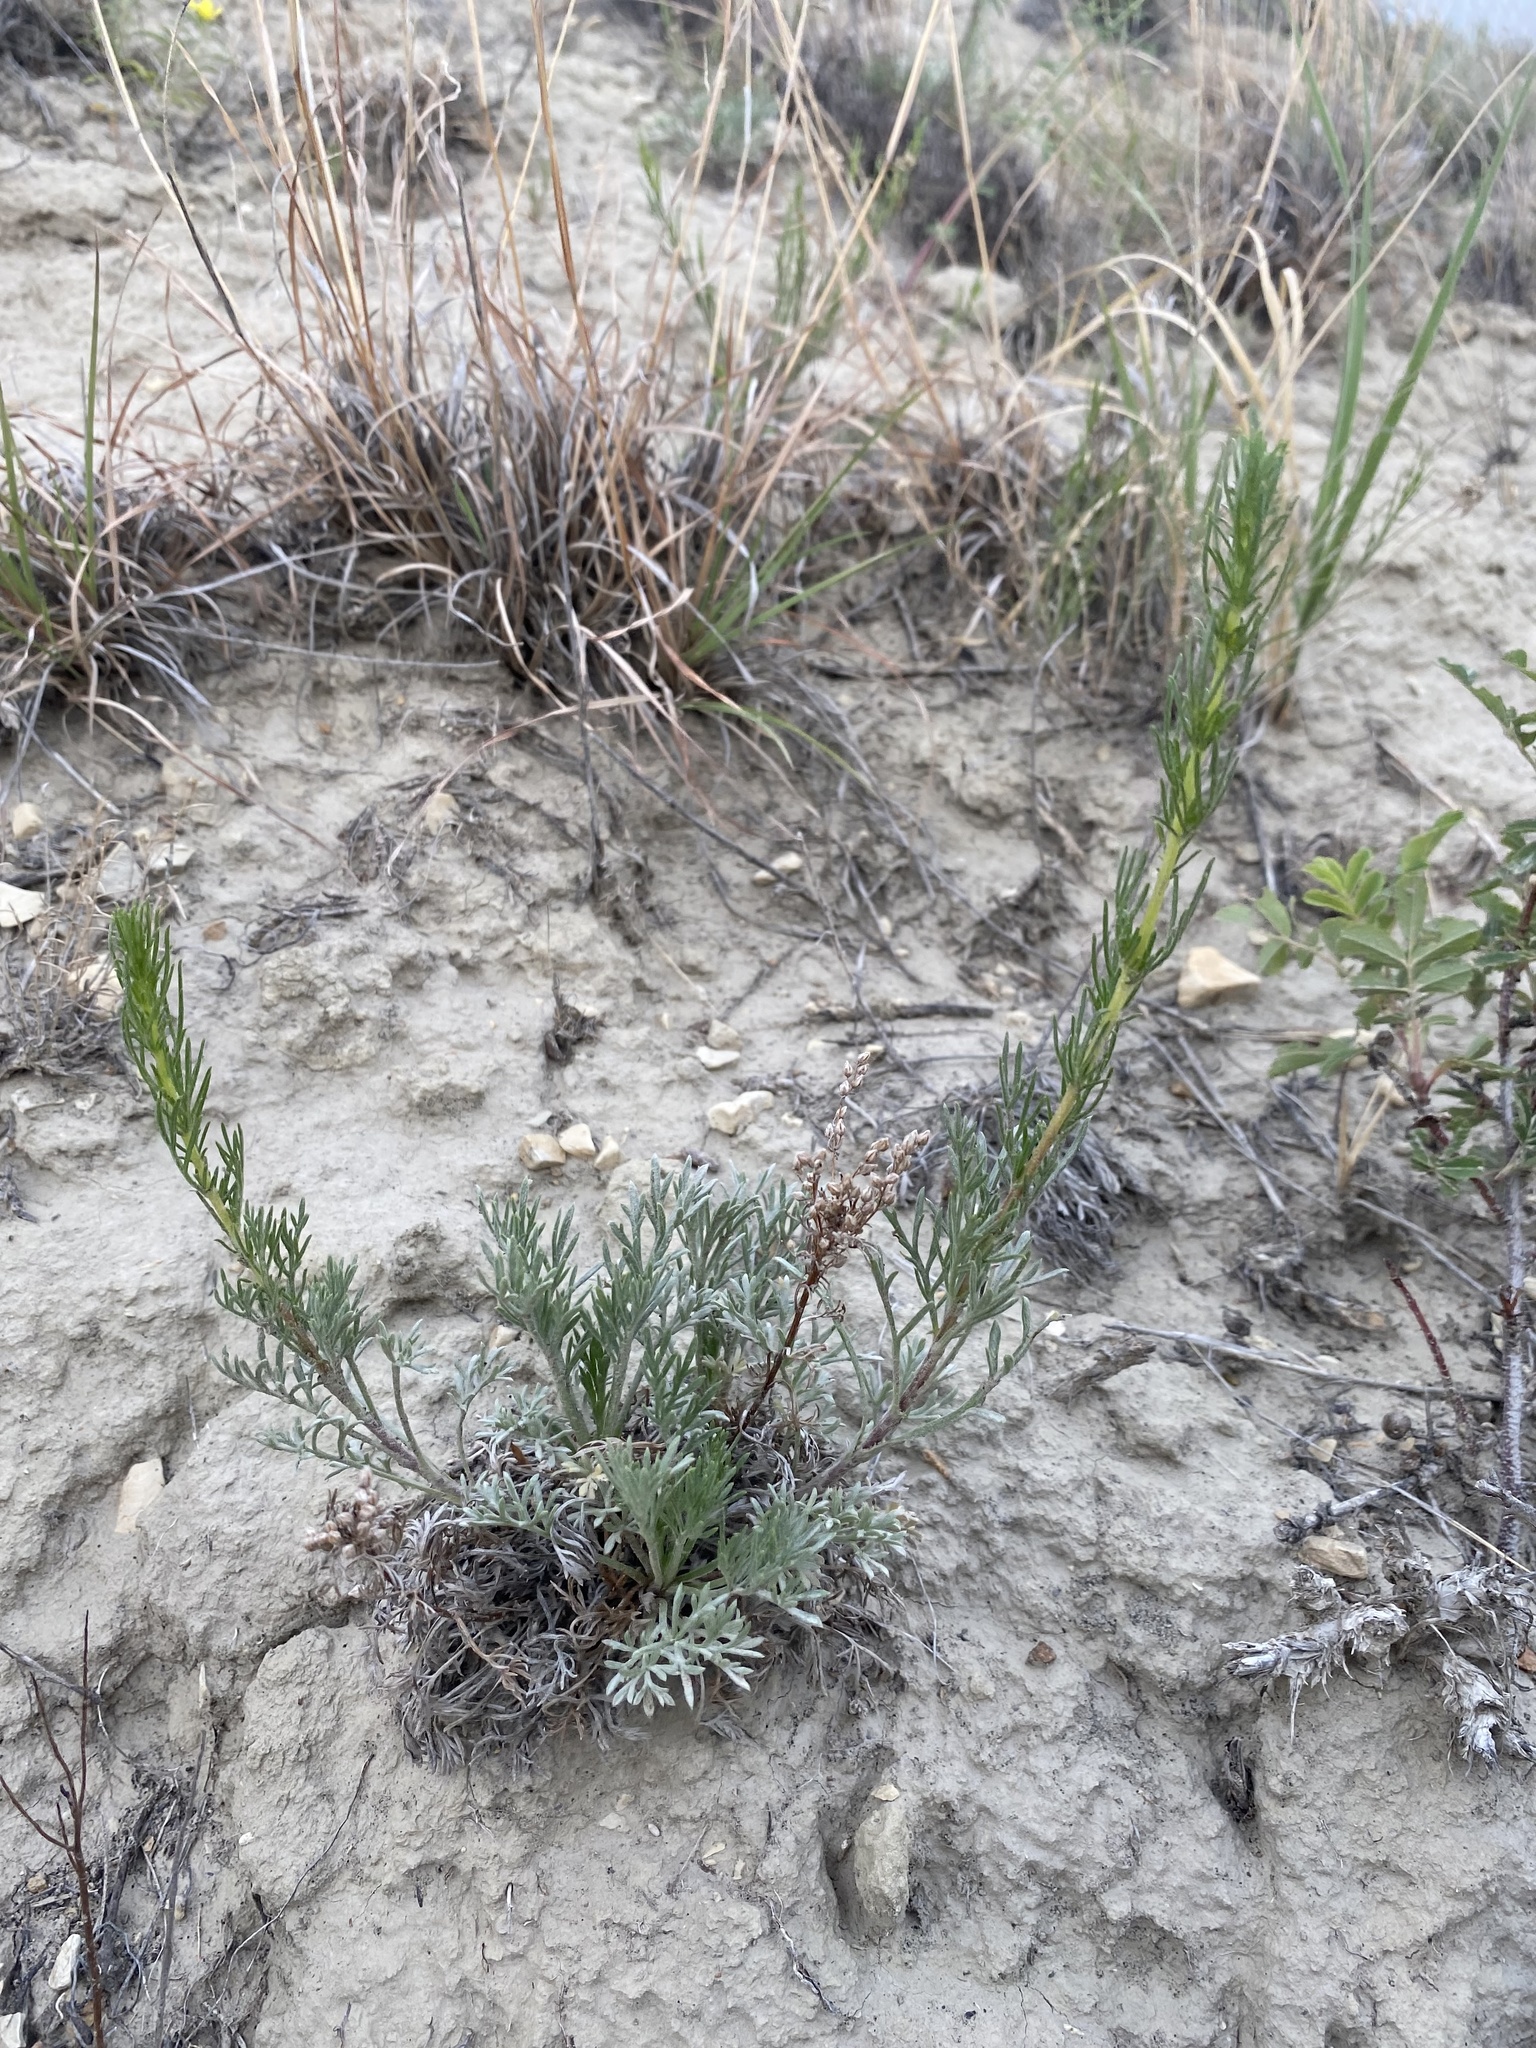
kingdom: Plantae
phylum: Tracheophyta
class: Magnoliopsida
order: Asterales
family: Asteraceae
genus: Artemisia
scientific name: Artemisia campestris
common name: Field wormwood
